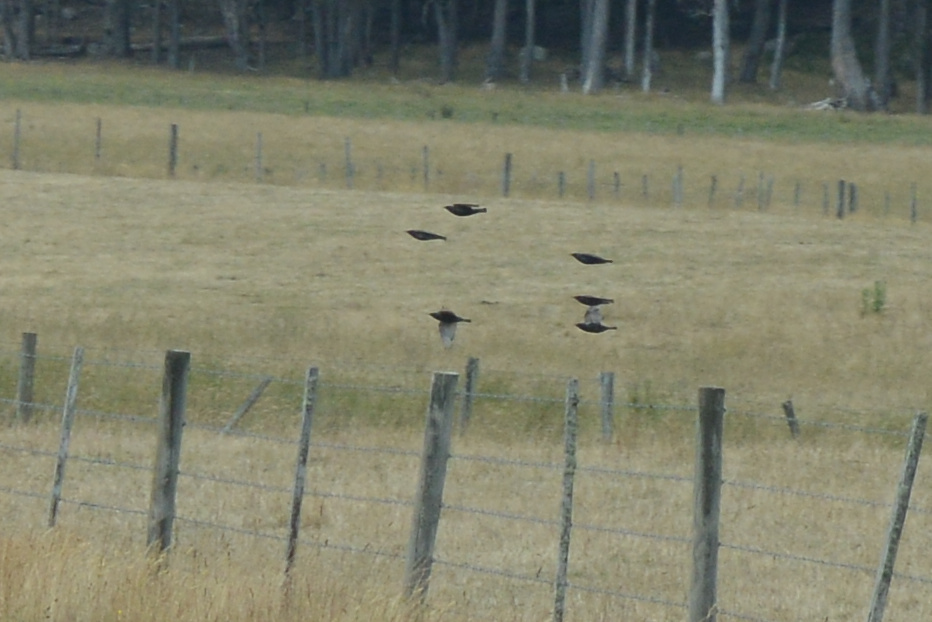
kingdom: Animalia
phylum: Chordata
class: Aves
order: Passeriformes
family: Sturnidae
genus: Sturnus
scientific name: Sturnus vulgaris
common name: Common starling
